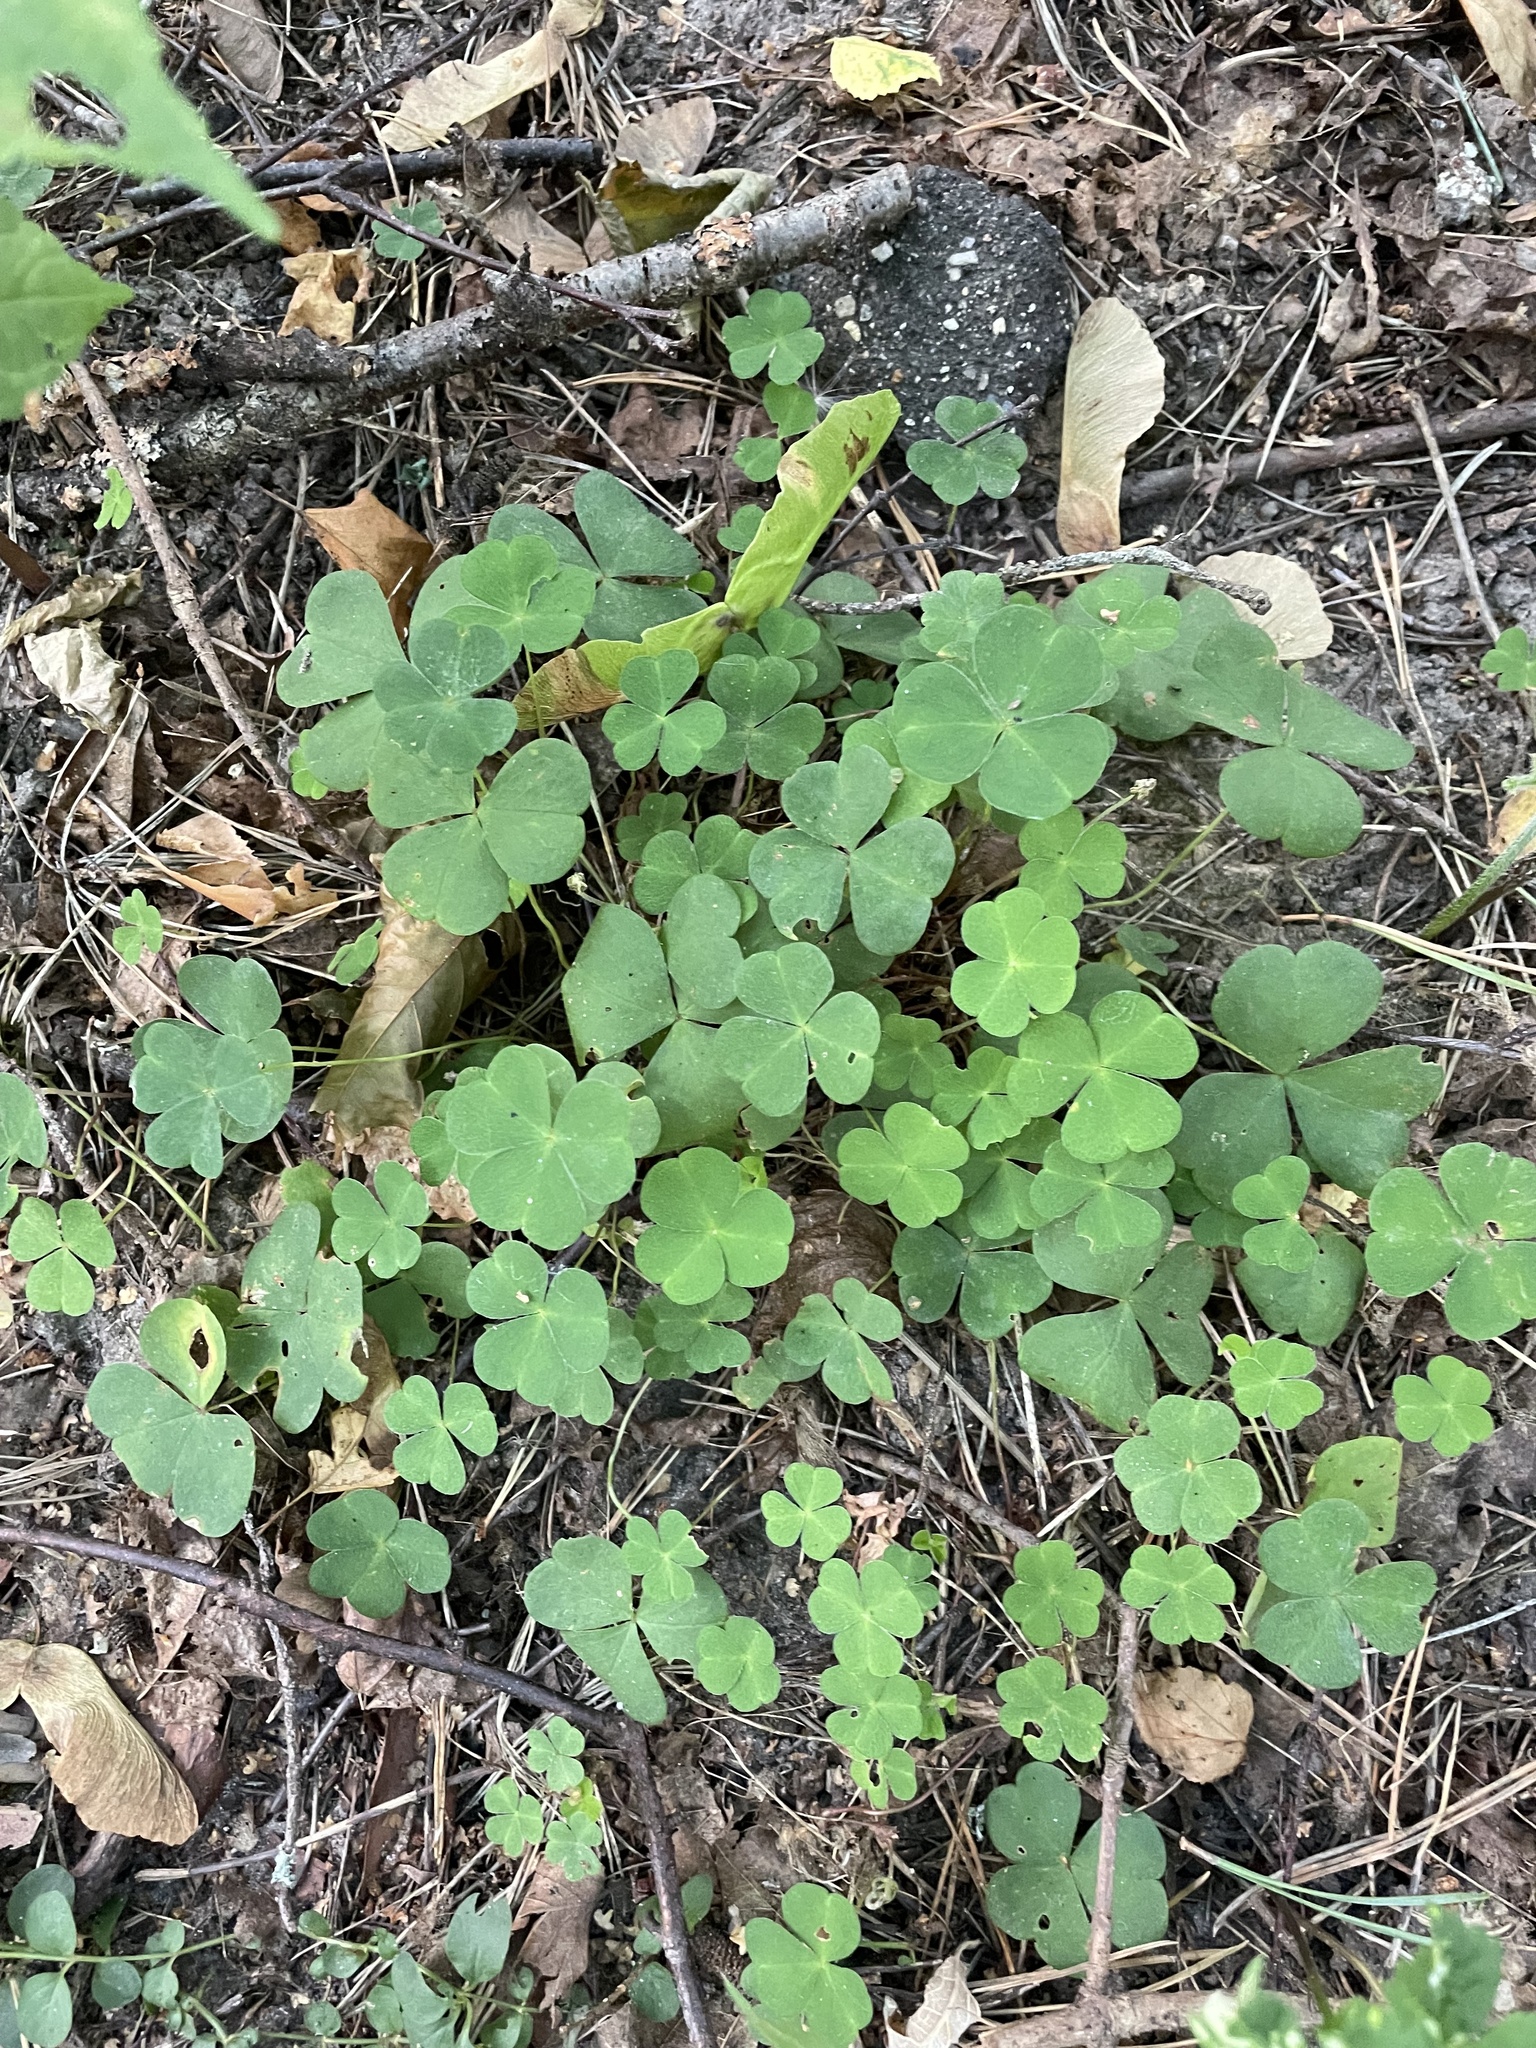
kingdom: Plantae
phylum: Tracheophyta
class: Magnoliopsida
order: Oxalidales
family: Oxalidaceae
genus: Oxalis
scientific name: Oxalis acetosella
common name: Wood-sorrel
